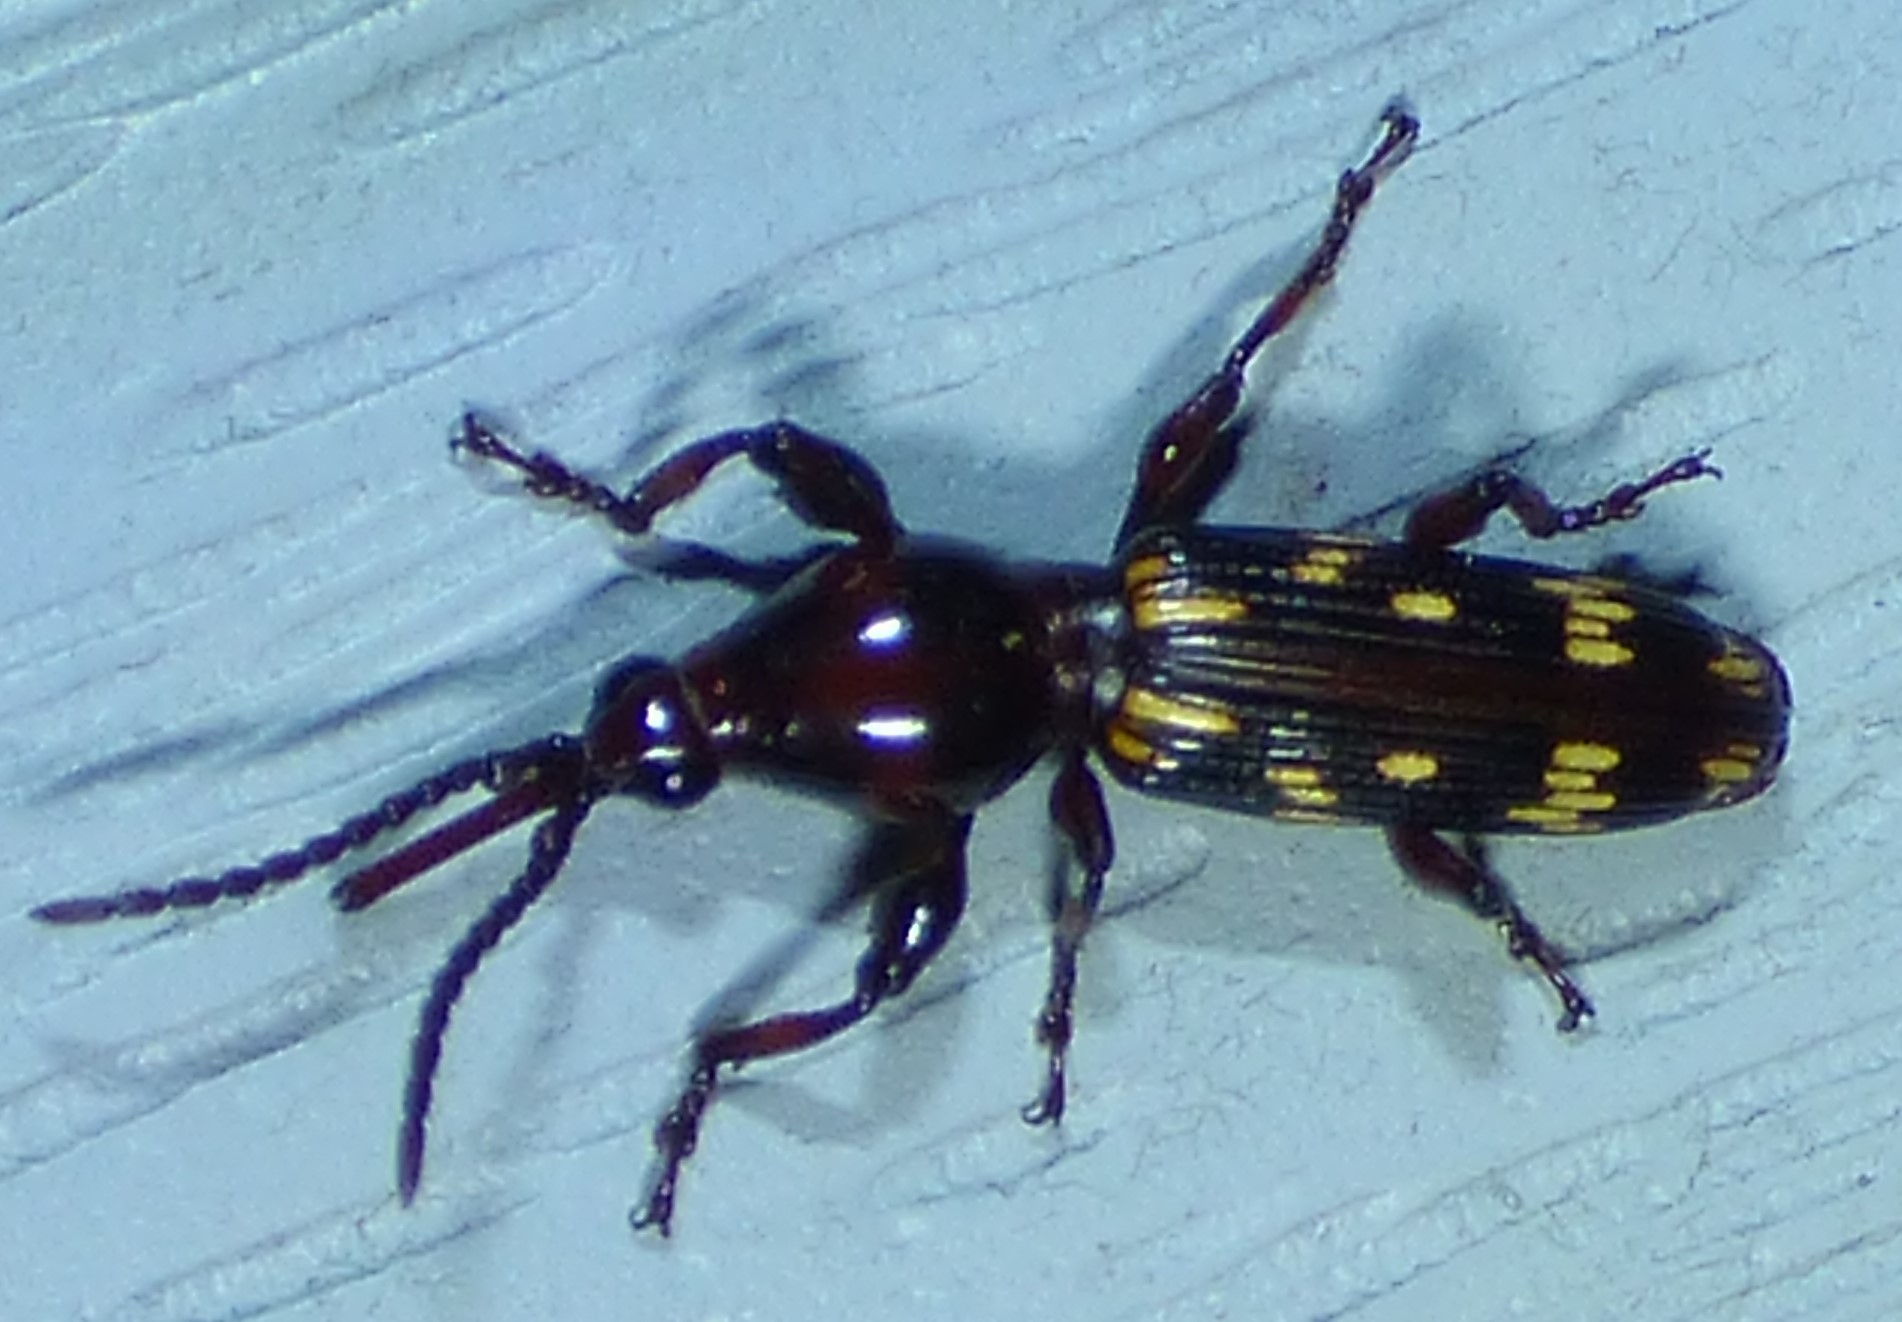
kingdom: Animalia
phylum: Arthropoda
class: Insecta
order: Coleoptera
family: Brentidae
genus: Arrenodes
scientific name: Arrenodes minutus
